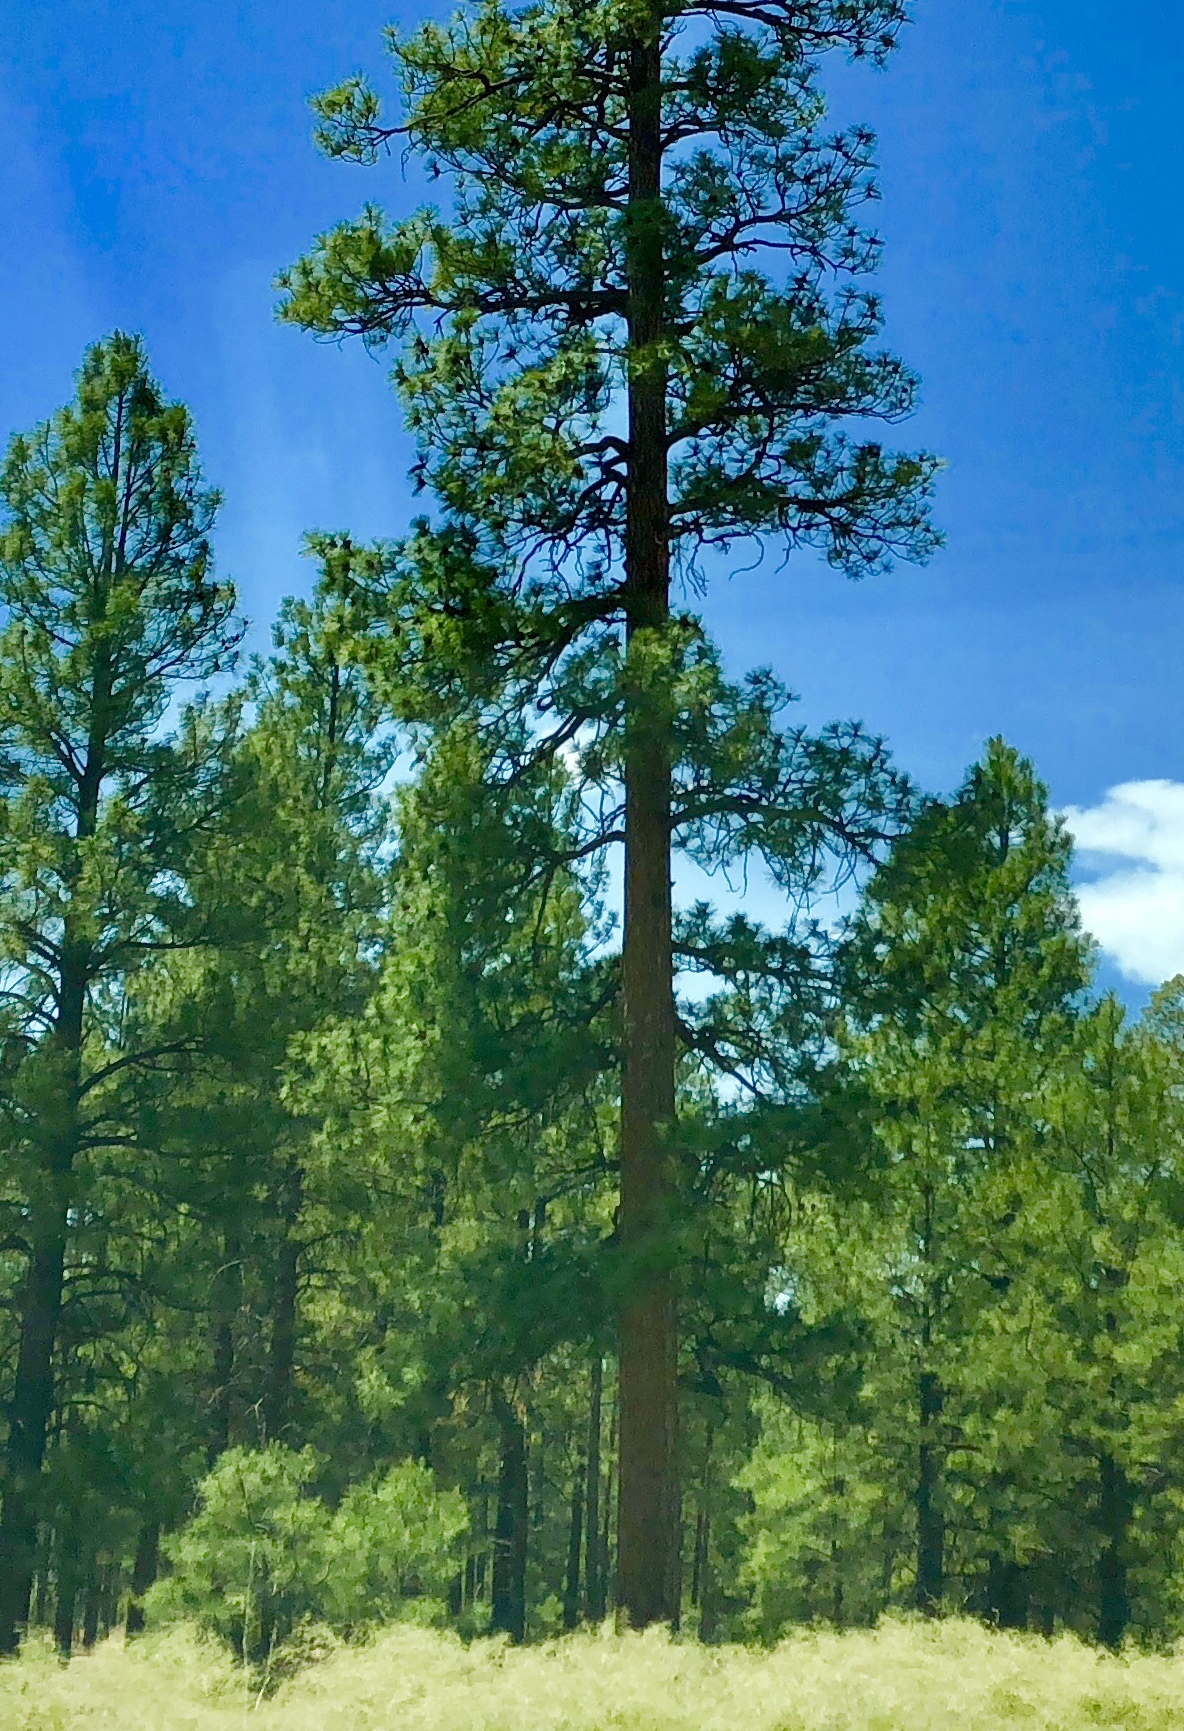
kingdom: Plantae
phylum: Tracheophyta
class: Pinopsida
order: Pinales
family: Pinaceae
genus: Pinus
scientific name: Pinus ponderosa
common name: Western yellow-pine
